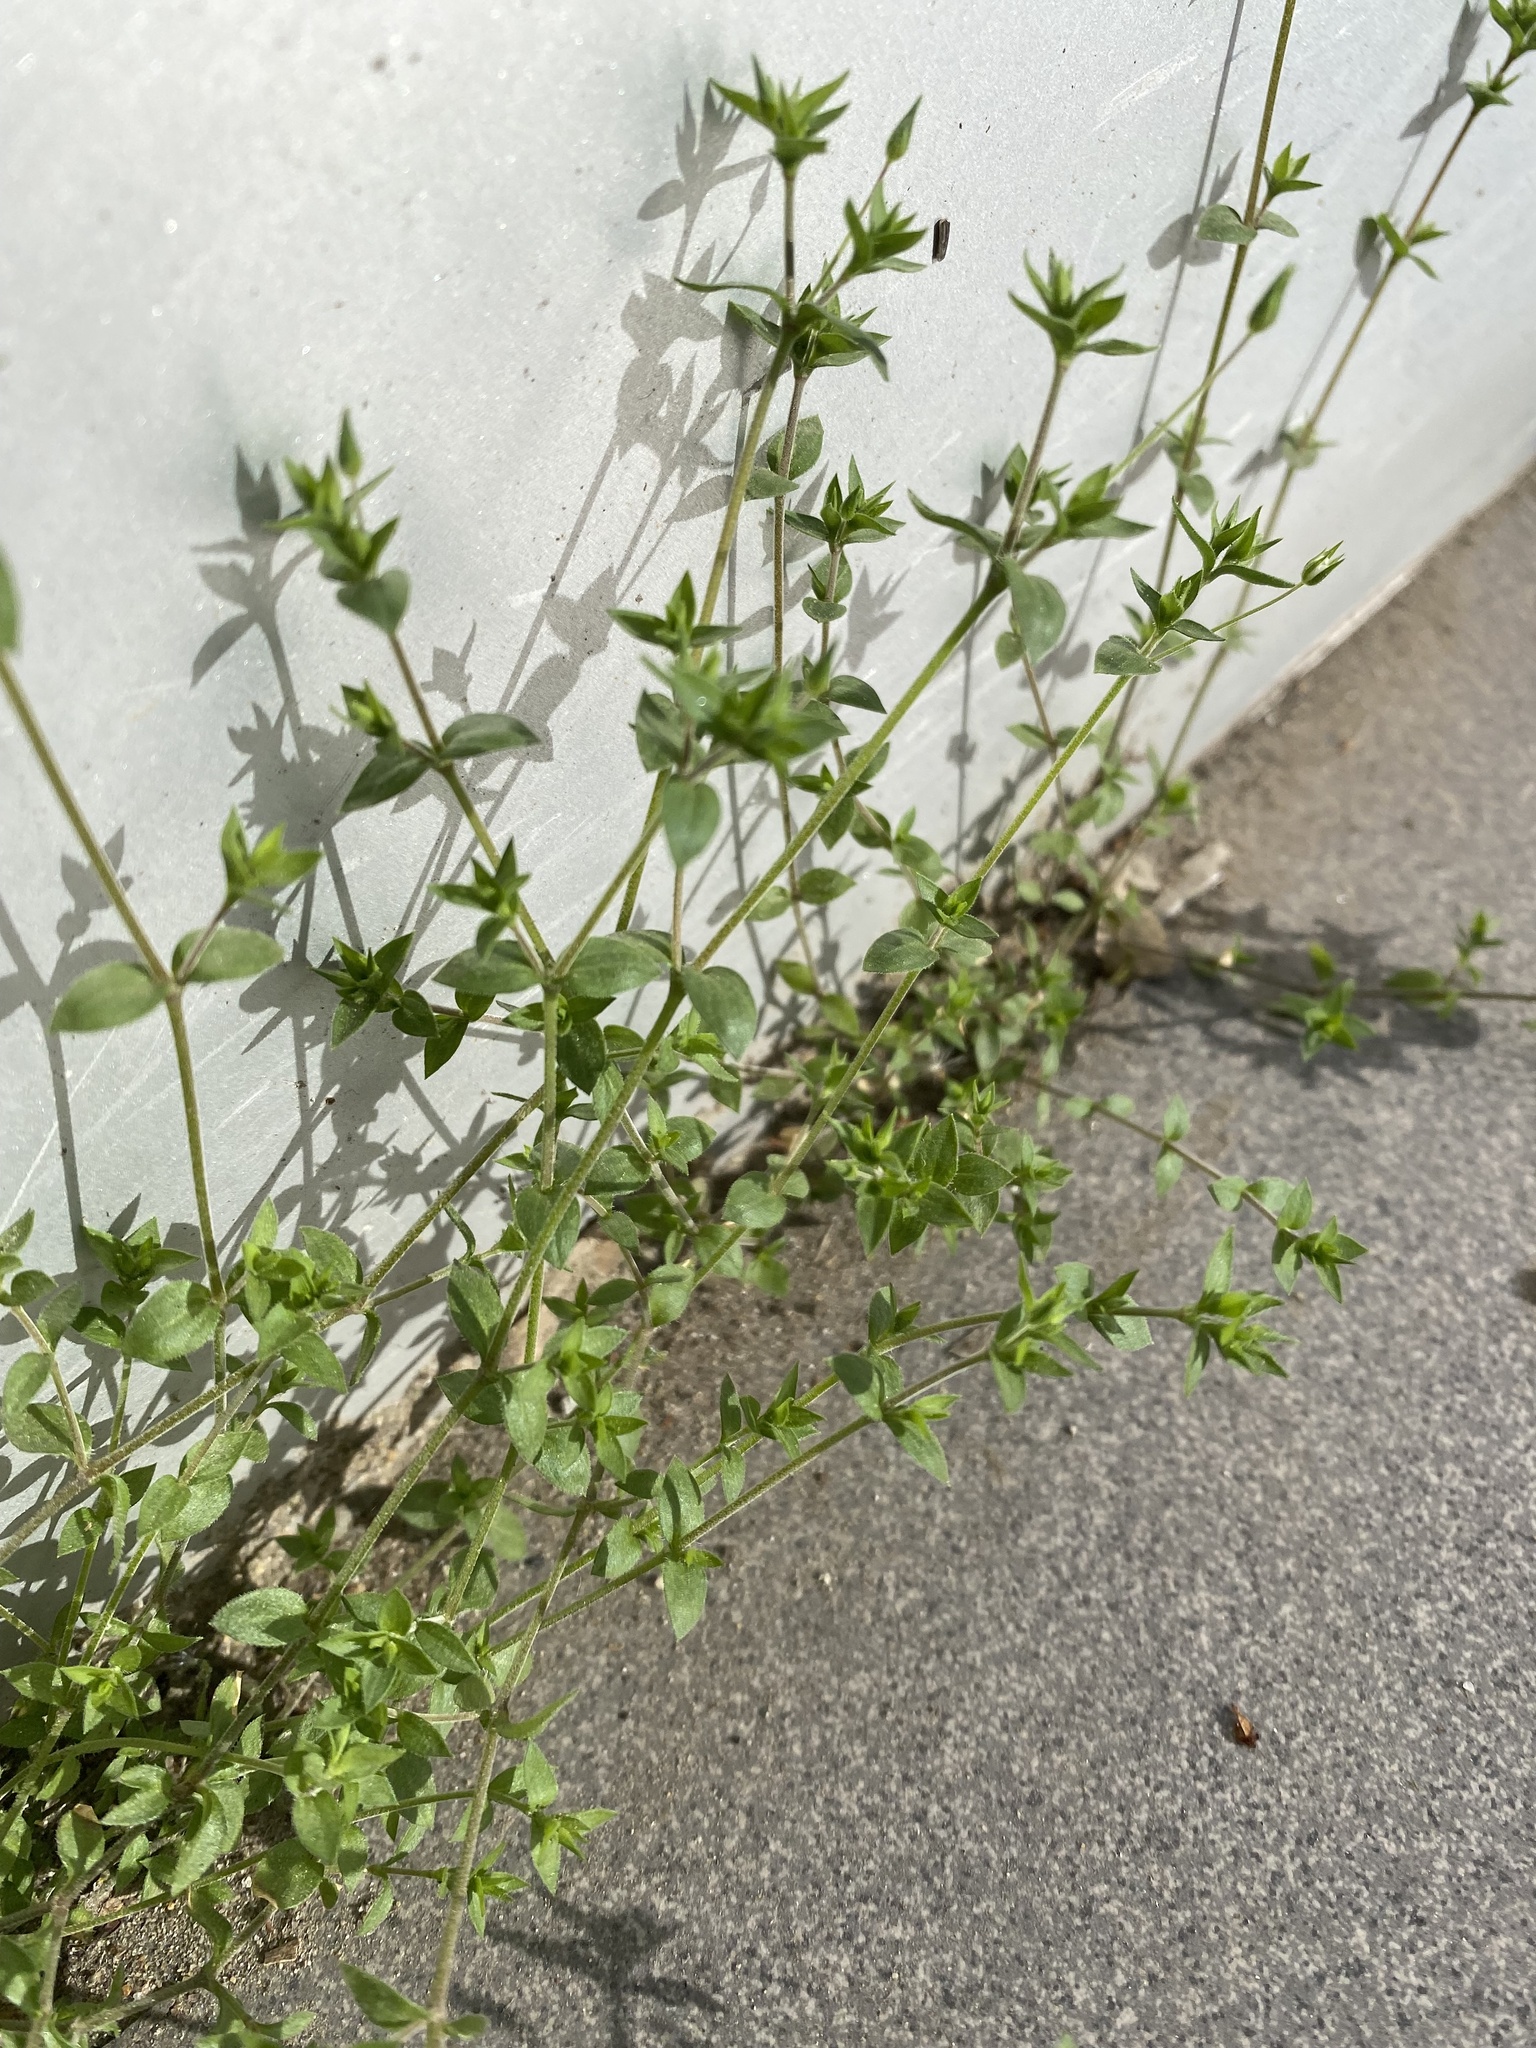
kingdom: Plantae
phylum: Tracheophyta
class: Magnoliopsida
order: Caryophyllales
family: Caryophyllaceae
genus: Arenaria
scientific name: Arenaria serpyllifolia
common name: Thyme-leaved sandwort
